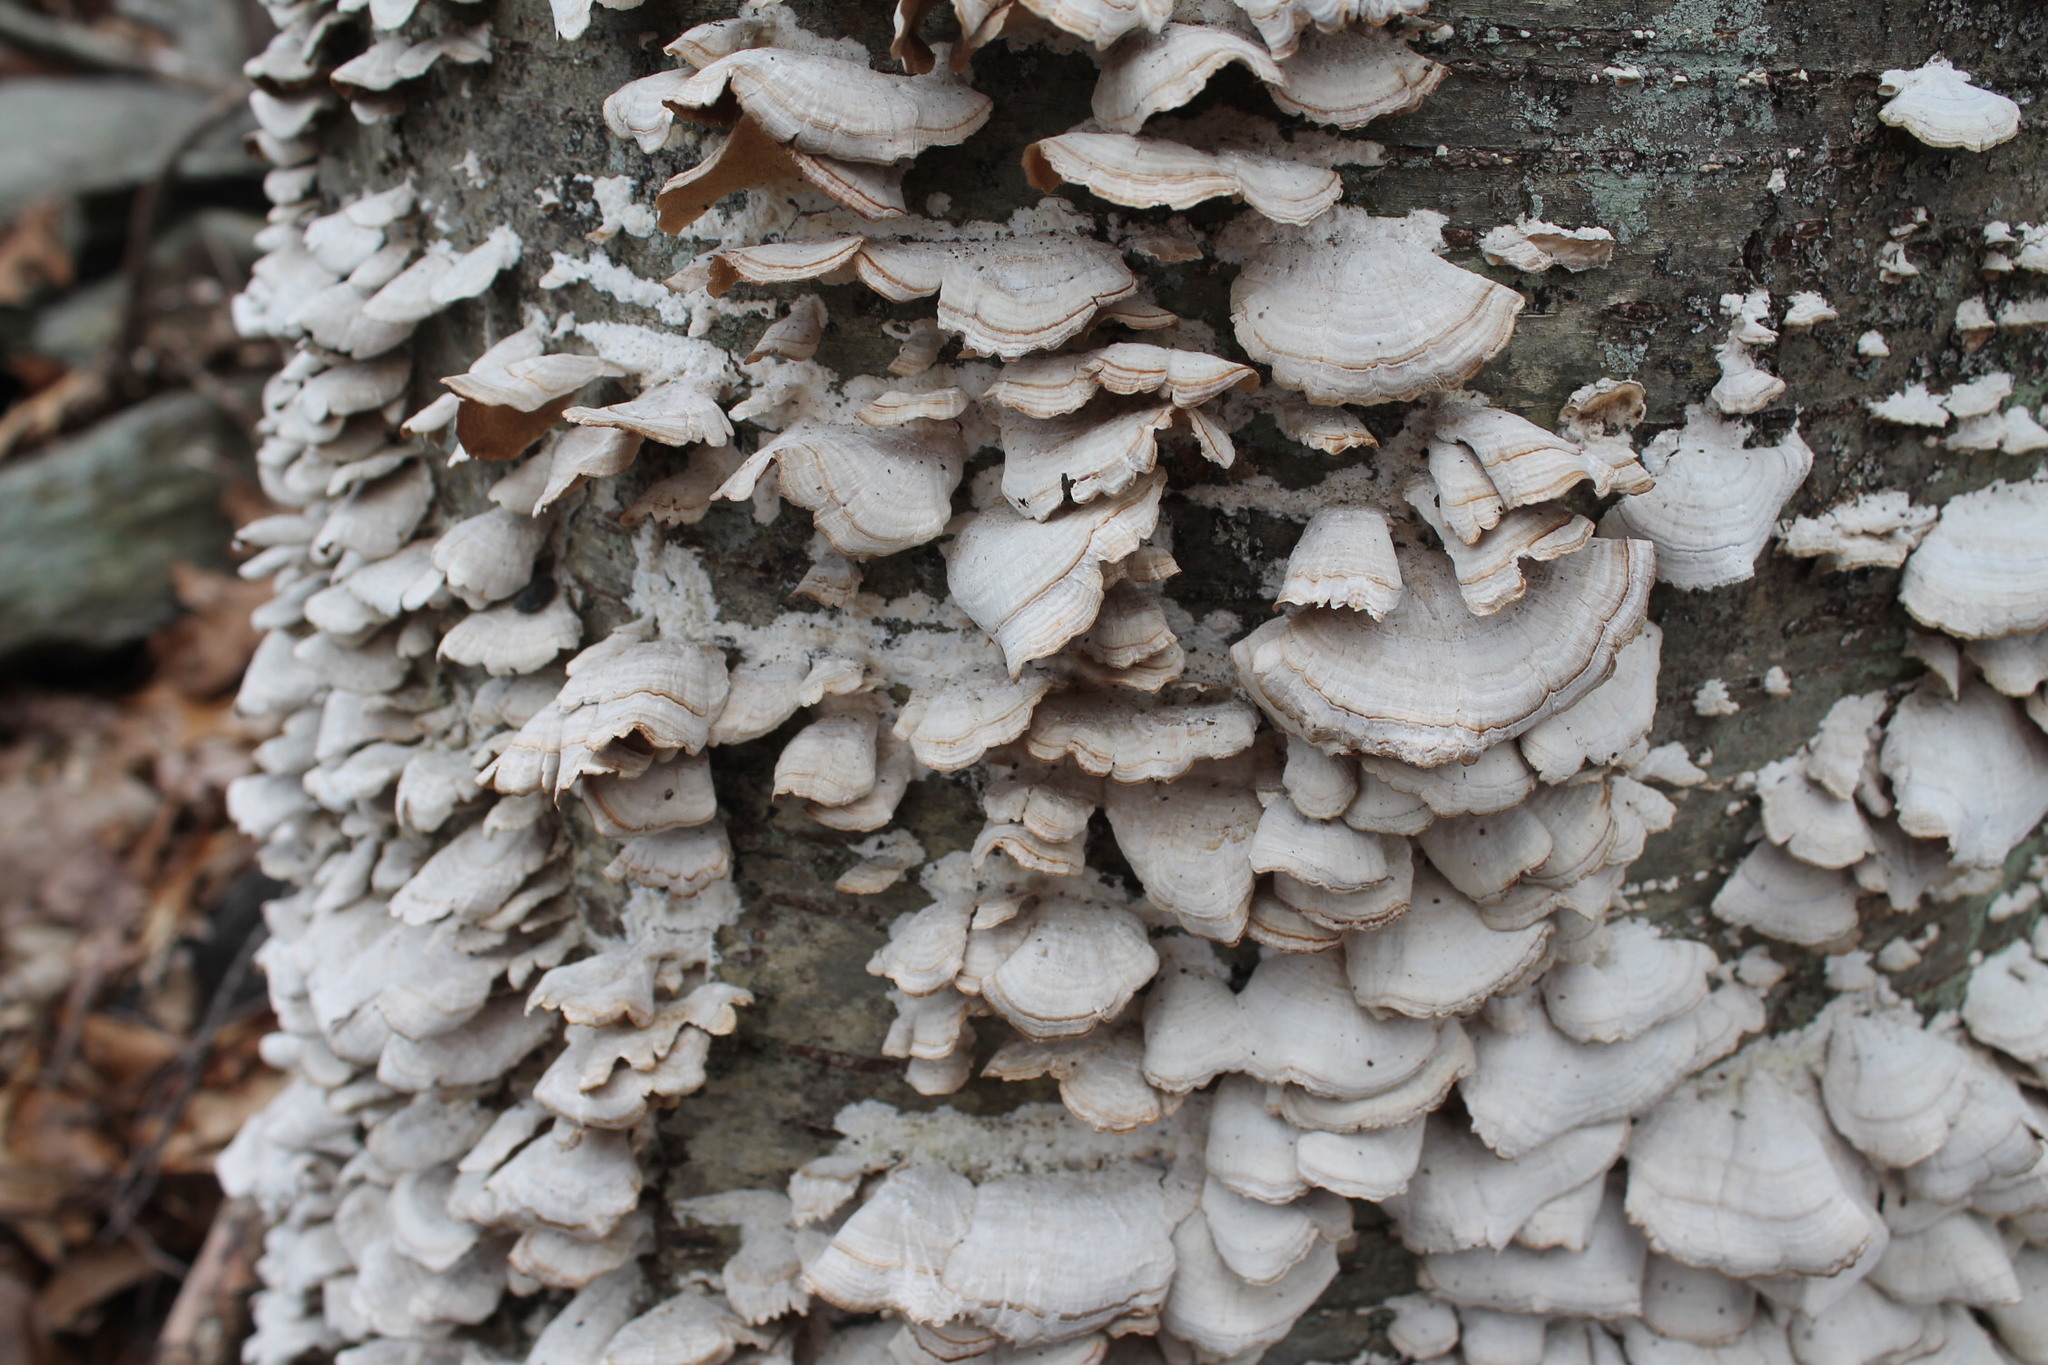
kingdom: Fungi
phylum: Basidiomycota
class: Agaricomycetes
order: Hymenochaetales
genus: Trichaptum
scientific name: Trichaptum biforme
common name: Violet-toothed polypore
